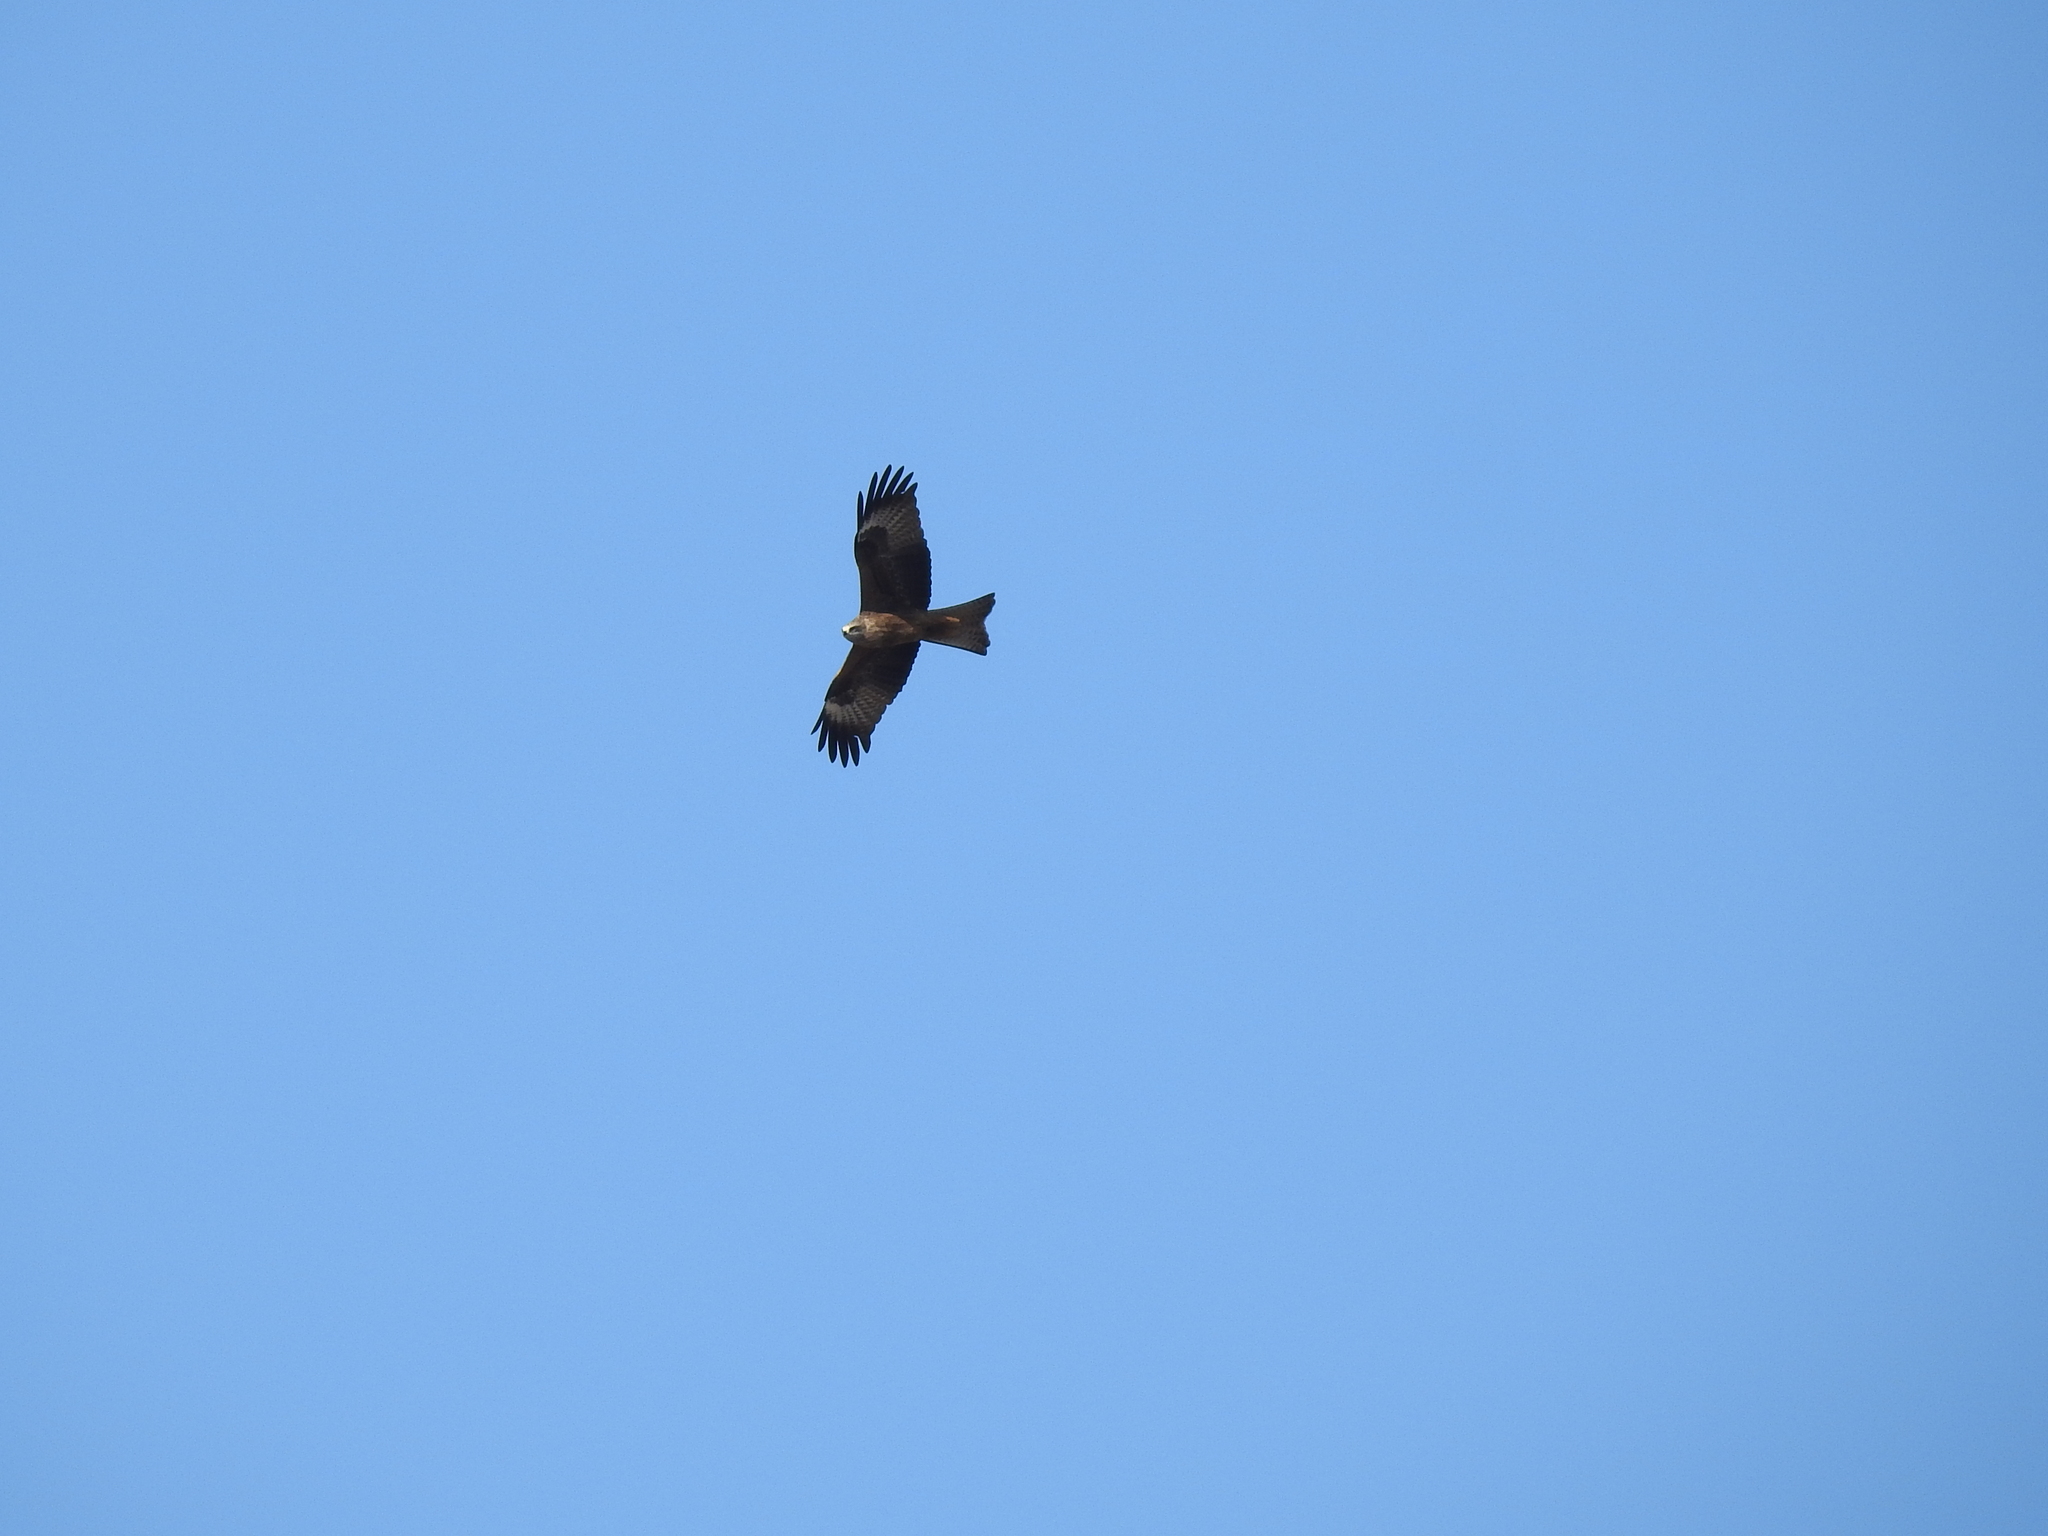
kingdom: Animalia
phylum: Chordata
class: Aves
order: Accipitriformes
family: Accipitridae
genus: Milvus
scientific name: Milvus migrans
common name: Black kite
